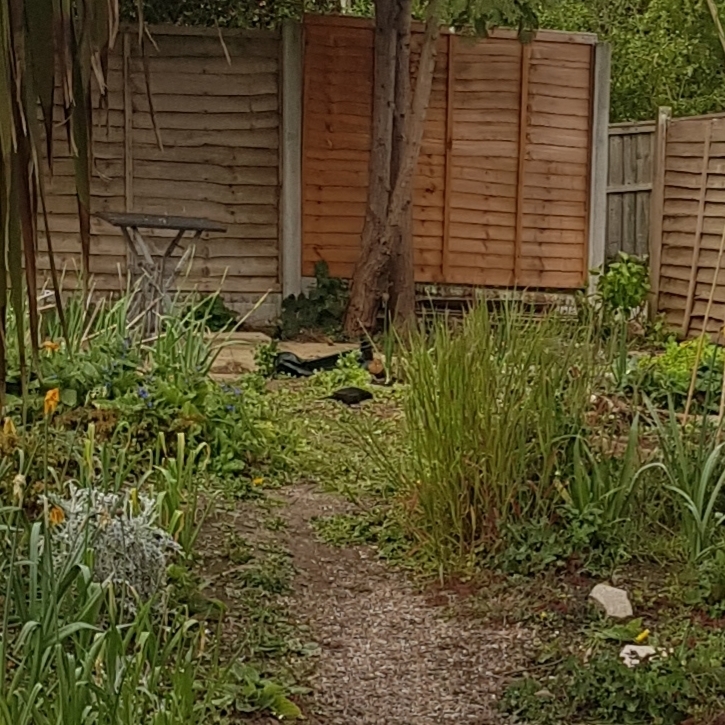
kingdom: Animalia
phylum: Chordata
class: Aves
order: Passeriformes
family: Turdidae
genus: Turdus
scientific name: Turdus merula
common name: Common blackbird
